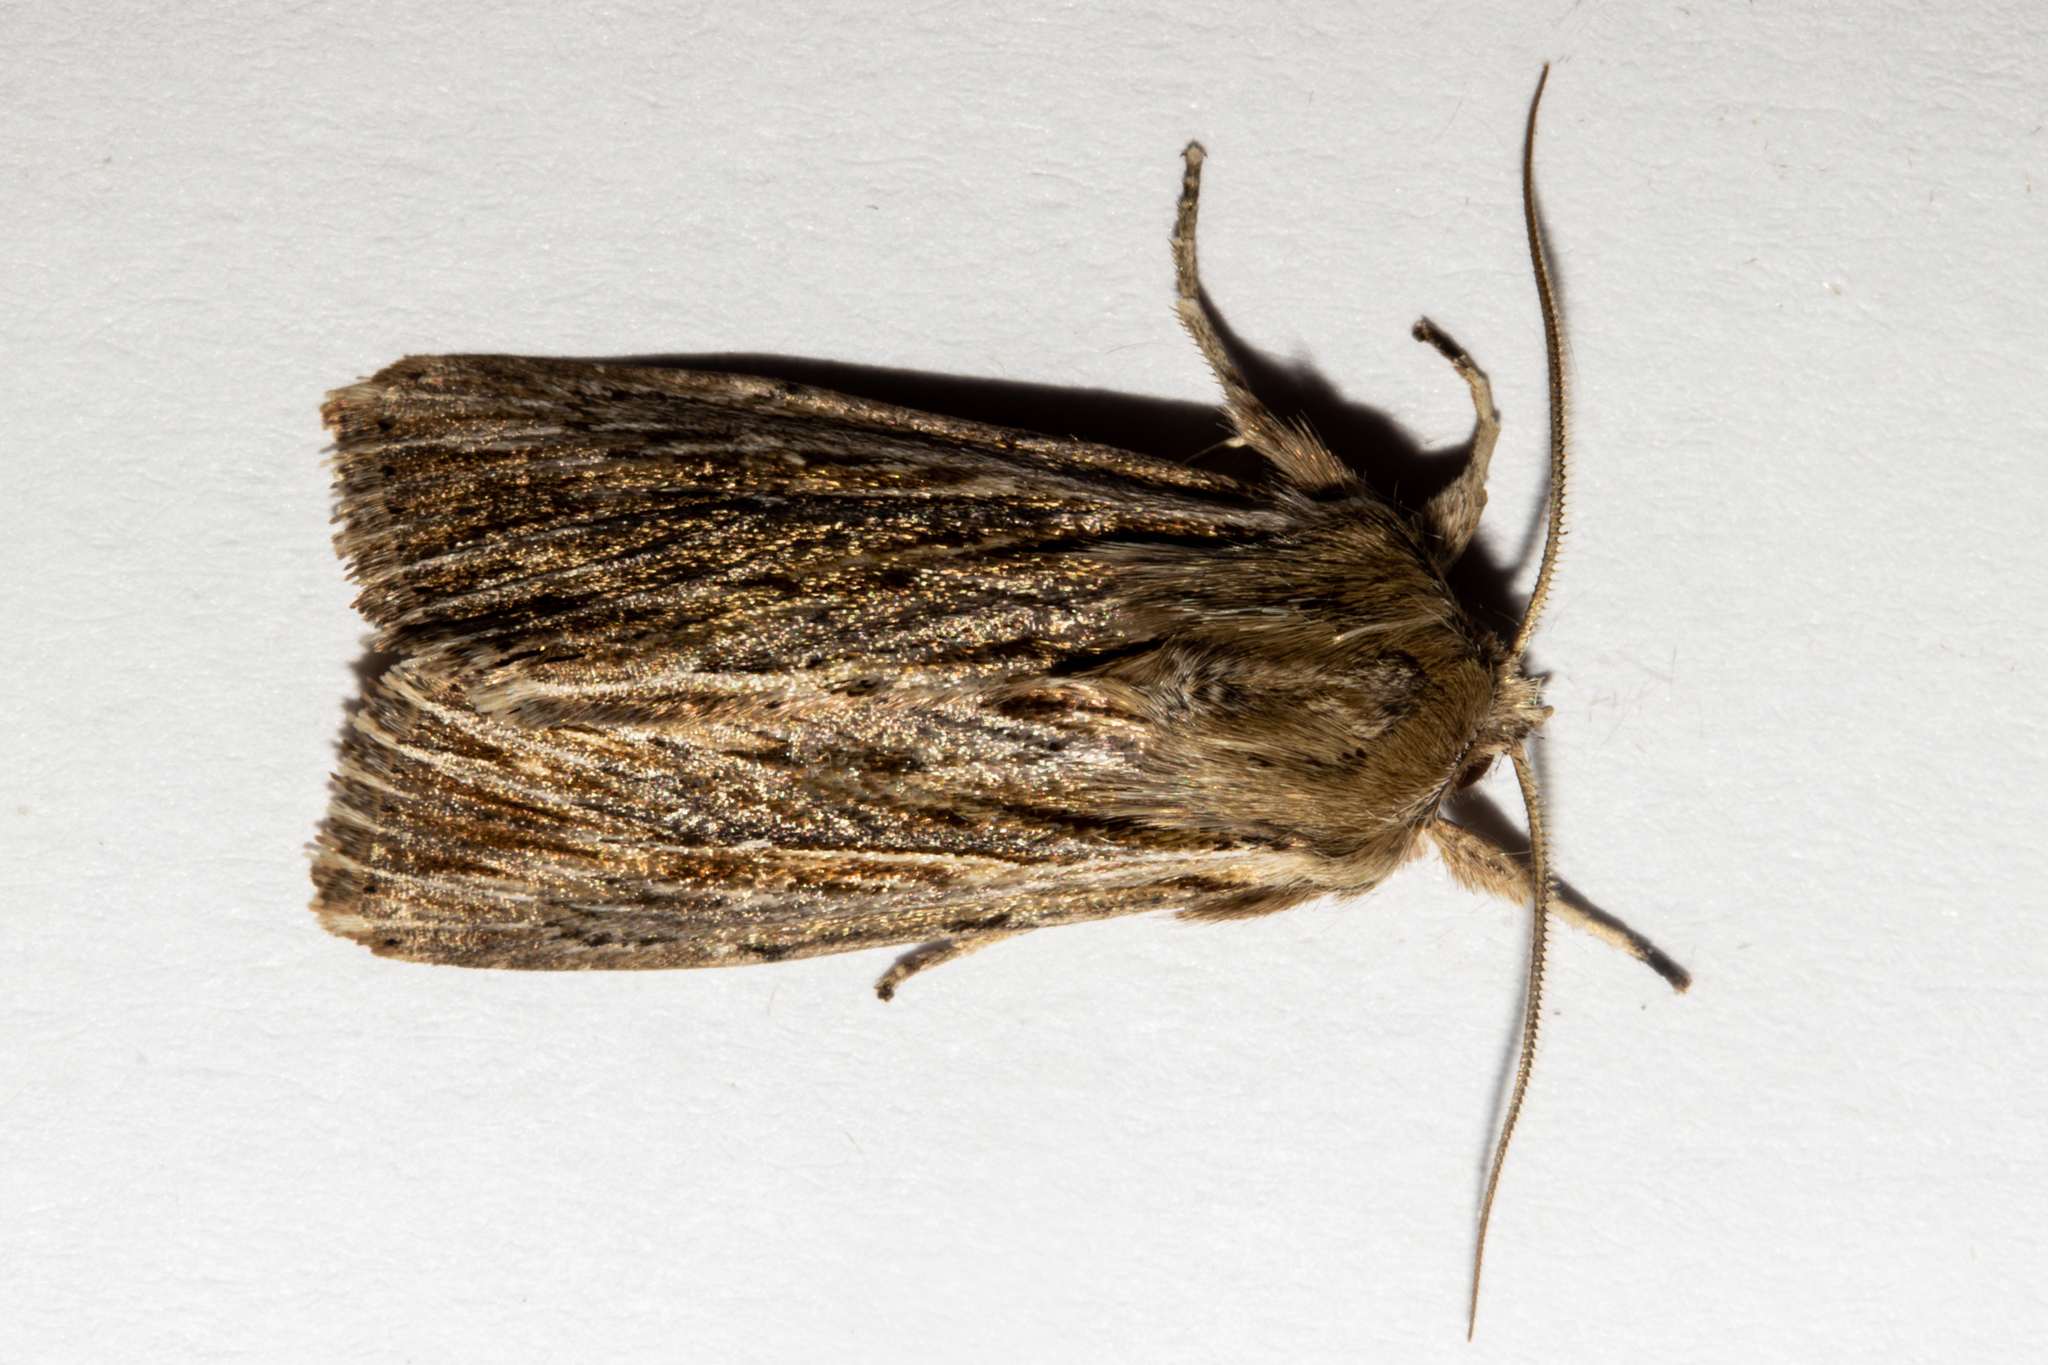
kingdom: Animalia
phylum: Arthropoda
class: Insecta
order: Lepidoptera
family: Noctuidae
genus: Persectania
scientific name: Persectania aversa
